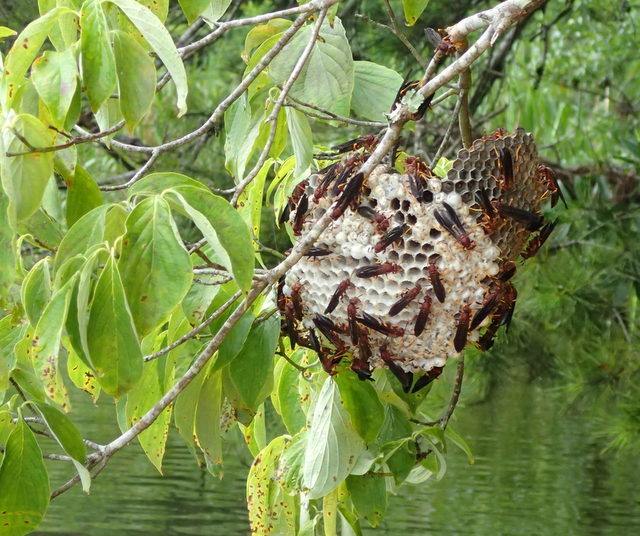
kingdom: Animalia
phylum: Arthropoda
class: Insecta
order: Hymenoptera
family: Eumenidae
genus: Polistes
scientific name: Polistes annularis
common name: Ringed paper wasp
